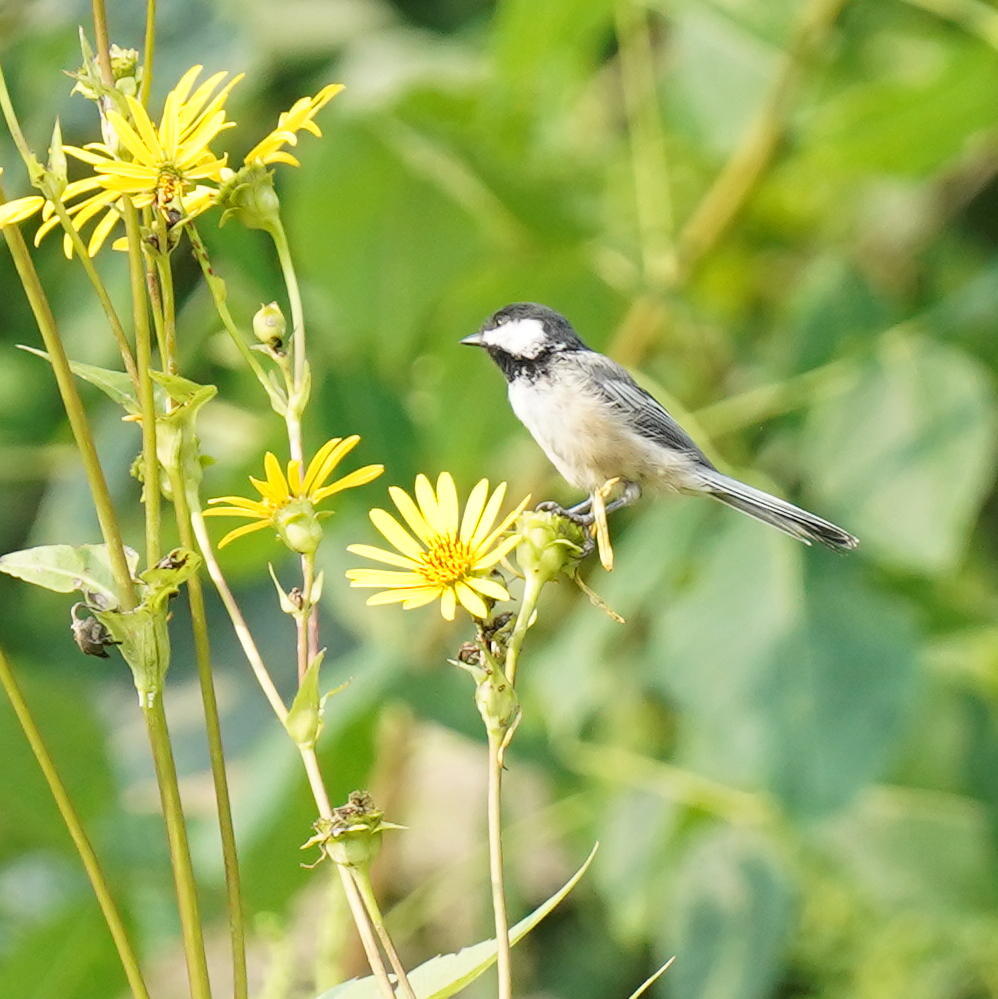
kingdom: Animalia
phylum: Chordata
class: Aves
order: Passeriformes
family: Paridae
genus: Poecile
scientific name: Poecile atricapillus
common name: Black-capped chickadee
